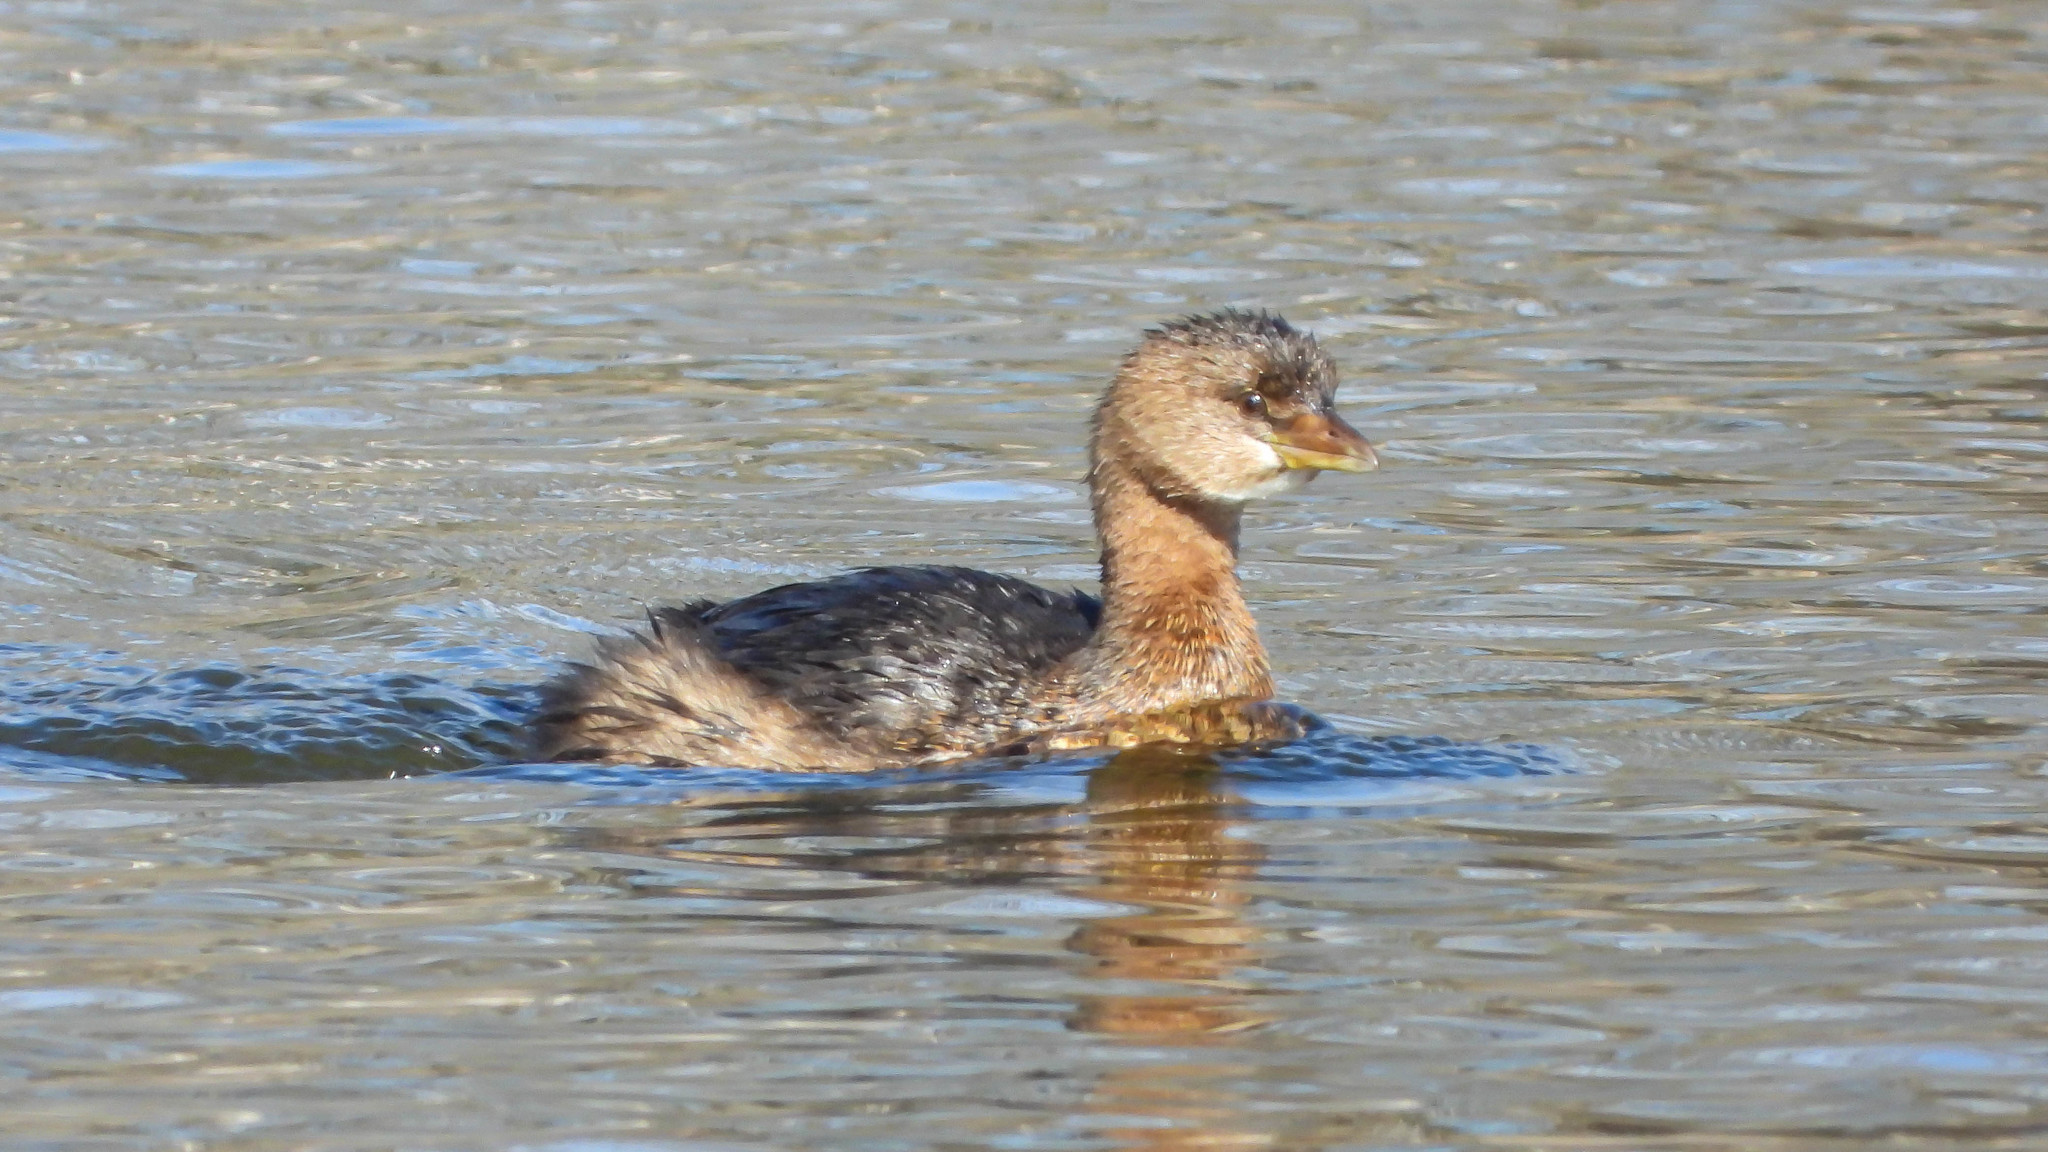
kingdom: Animalia
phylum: Chordata
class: Aves
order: Podicipediformes
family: Podicipedidae
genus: Podilymbus
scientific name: Podilymbus podiceps
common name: Pied-billed grebe
